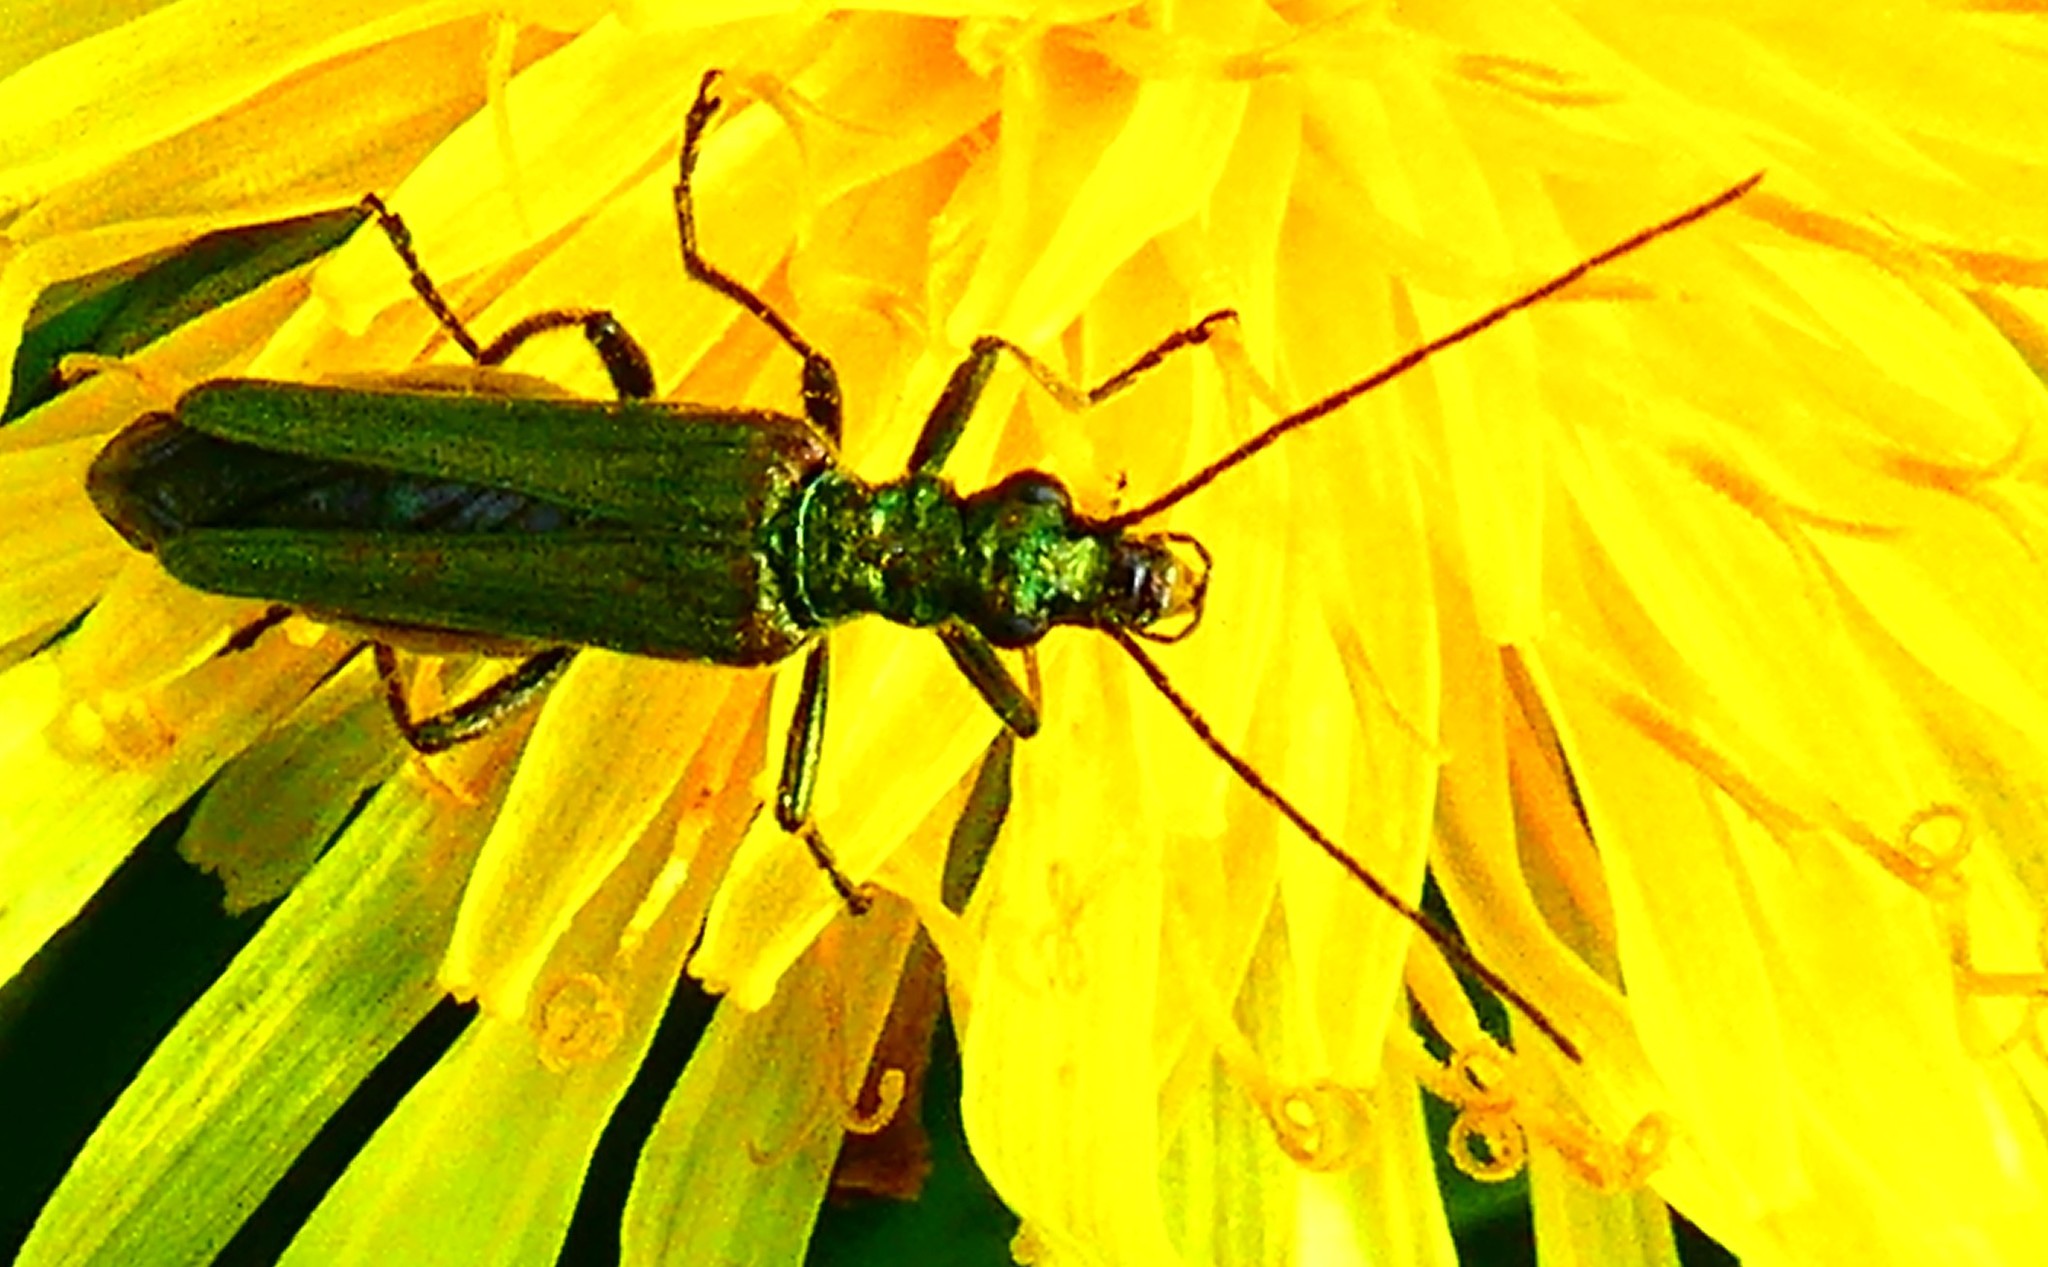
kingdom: Animalia
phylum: Arthropoda
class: Insecta
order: Coleoptera
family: Oedemeridae
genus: Oedemera
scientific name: Oedemera nobilis
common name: Swollen-thighed beetle
